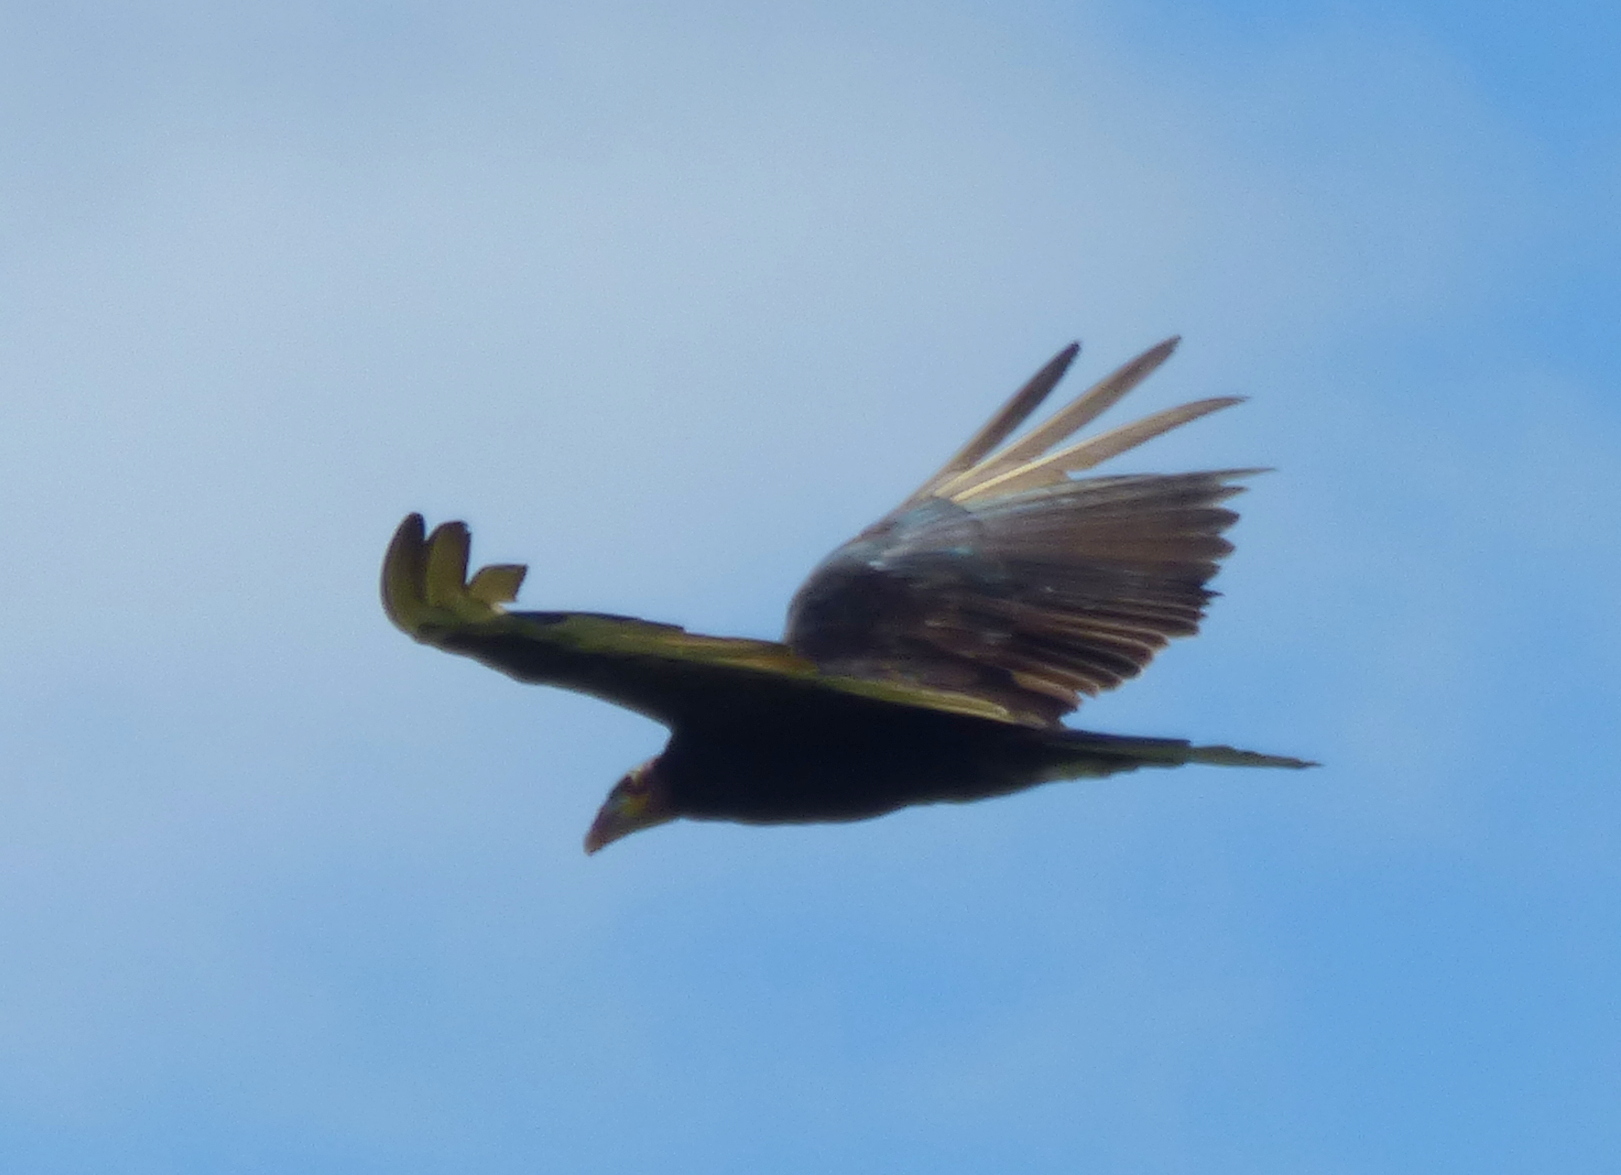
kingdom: Animalia
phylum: Chordata
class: Aves
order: Accipitriformes
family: Cathartidae
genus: Cathartes
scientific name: Cathartes burrovianus
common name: Lesser yellow-headed vulture
